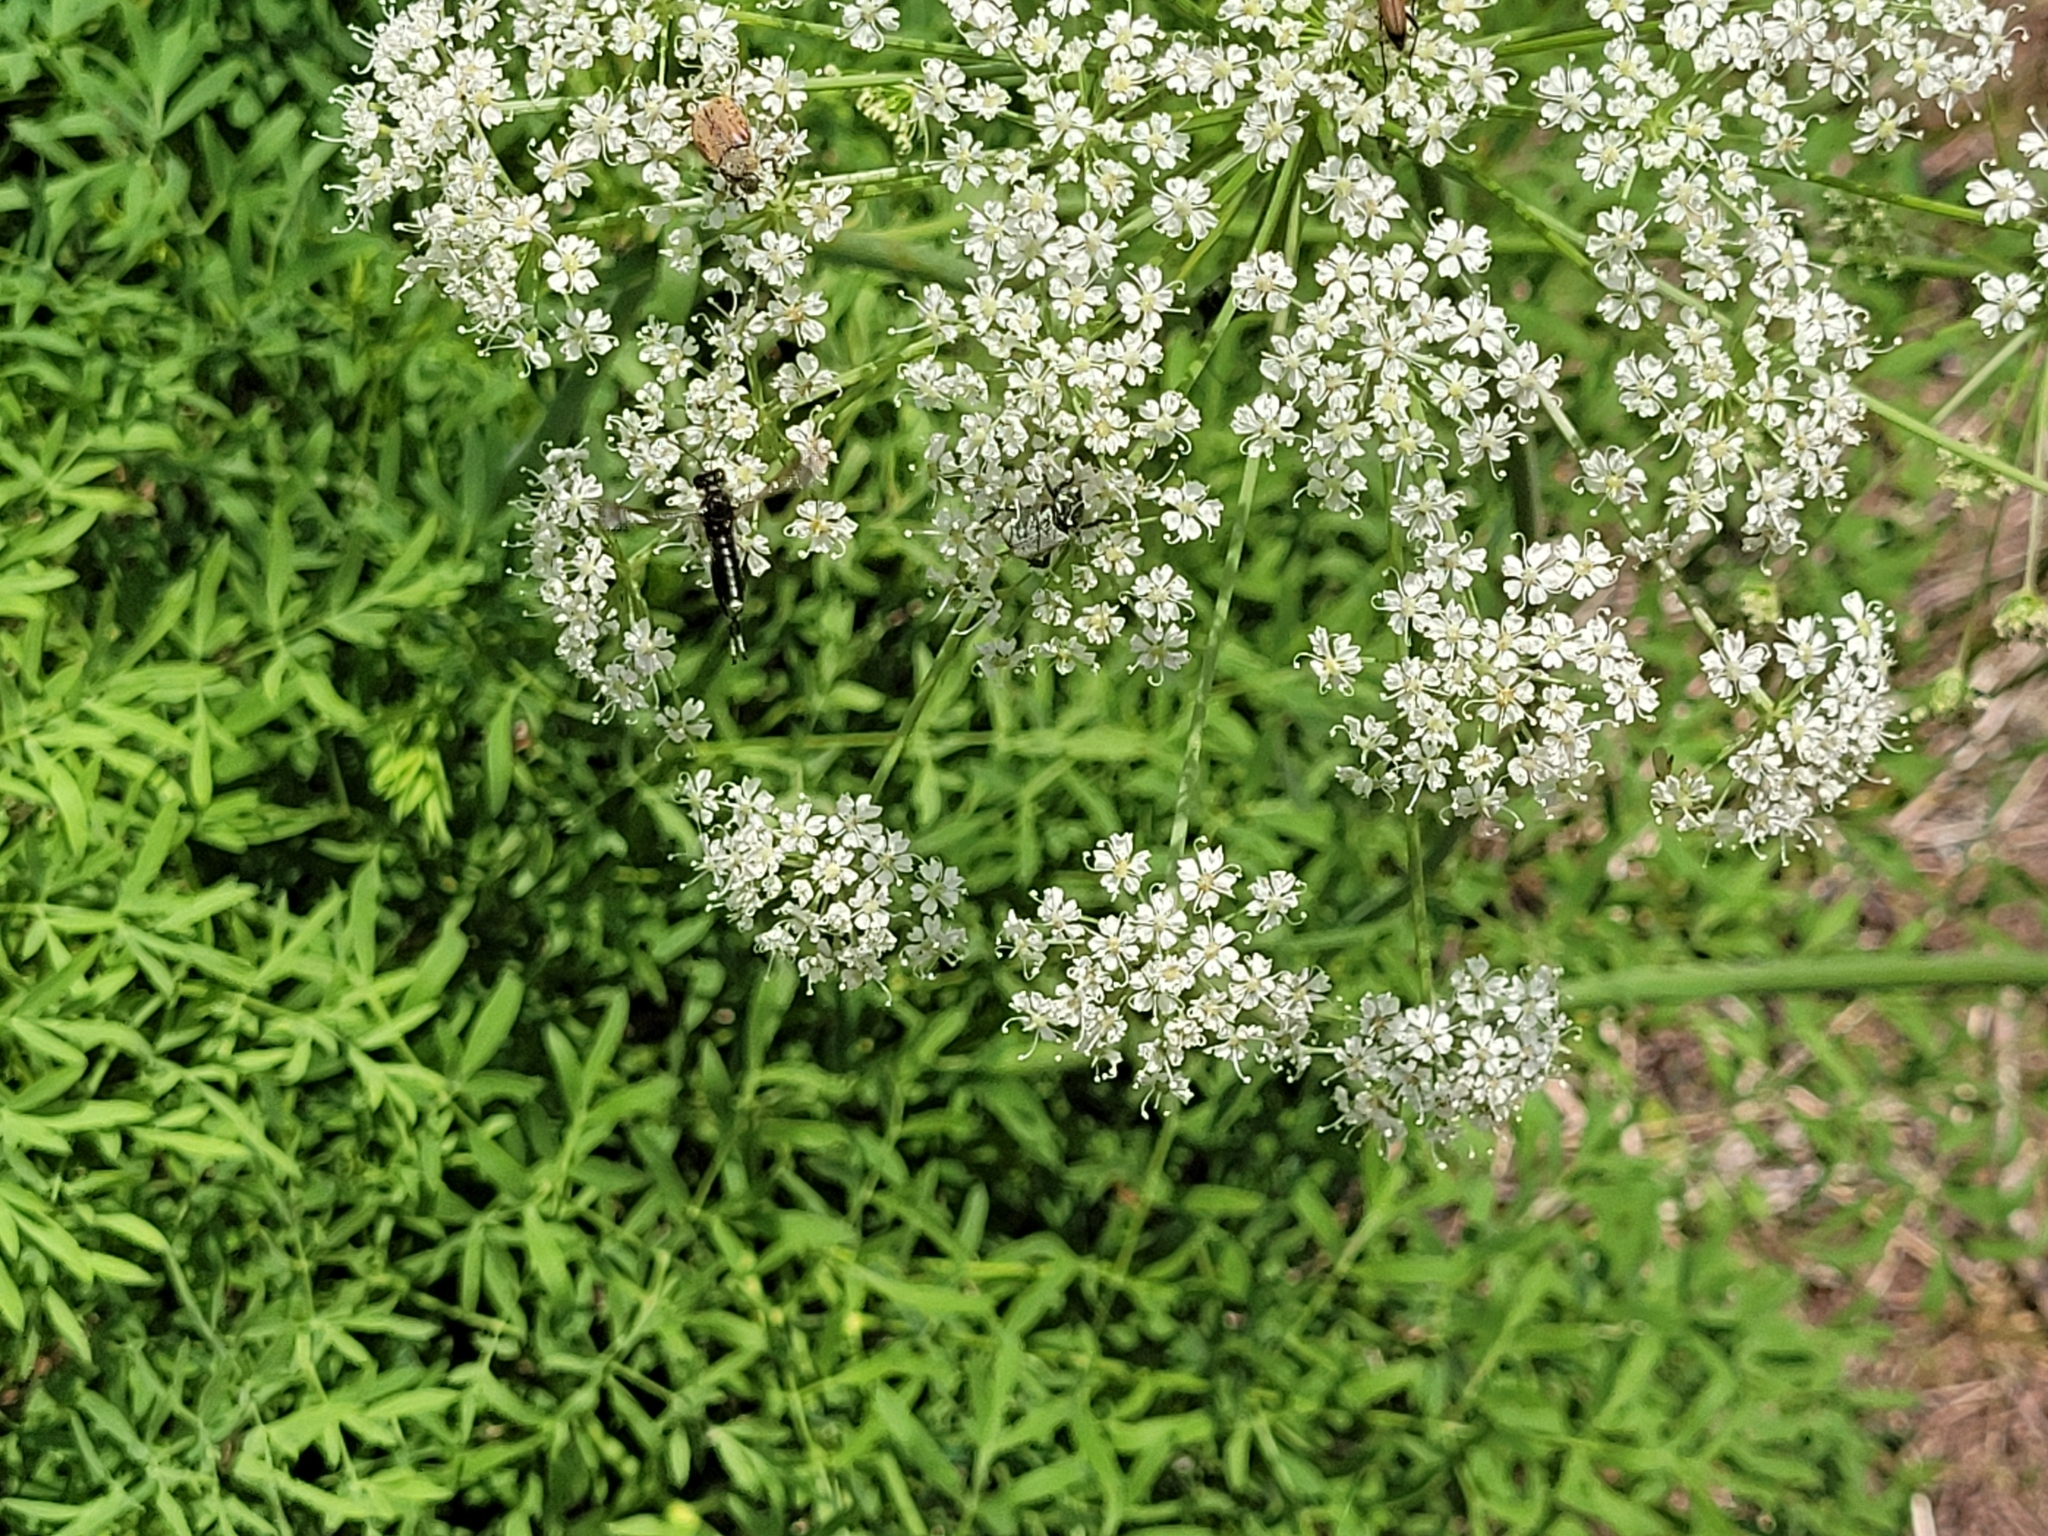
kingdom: Plantae
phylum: Tracheophyta
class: Magnoliopsida
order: Apiales
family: Apiaceae
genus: Siler
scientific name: Siler montanum
